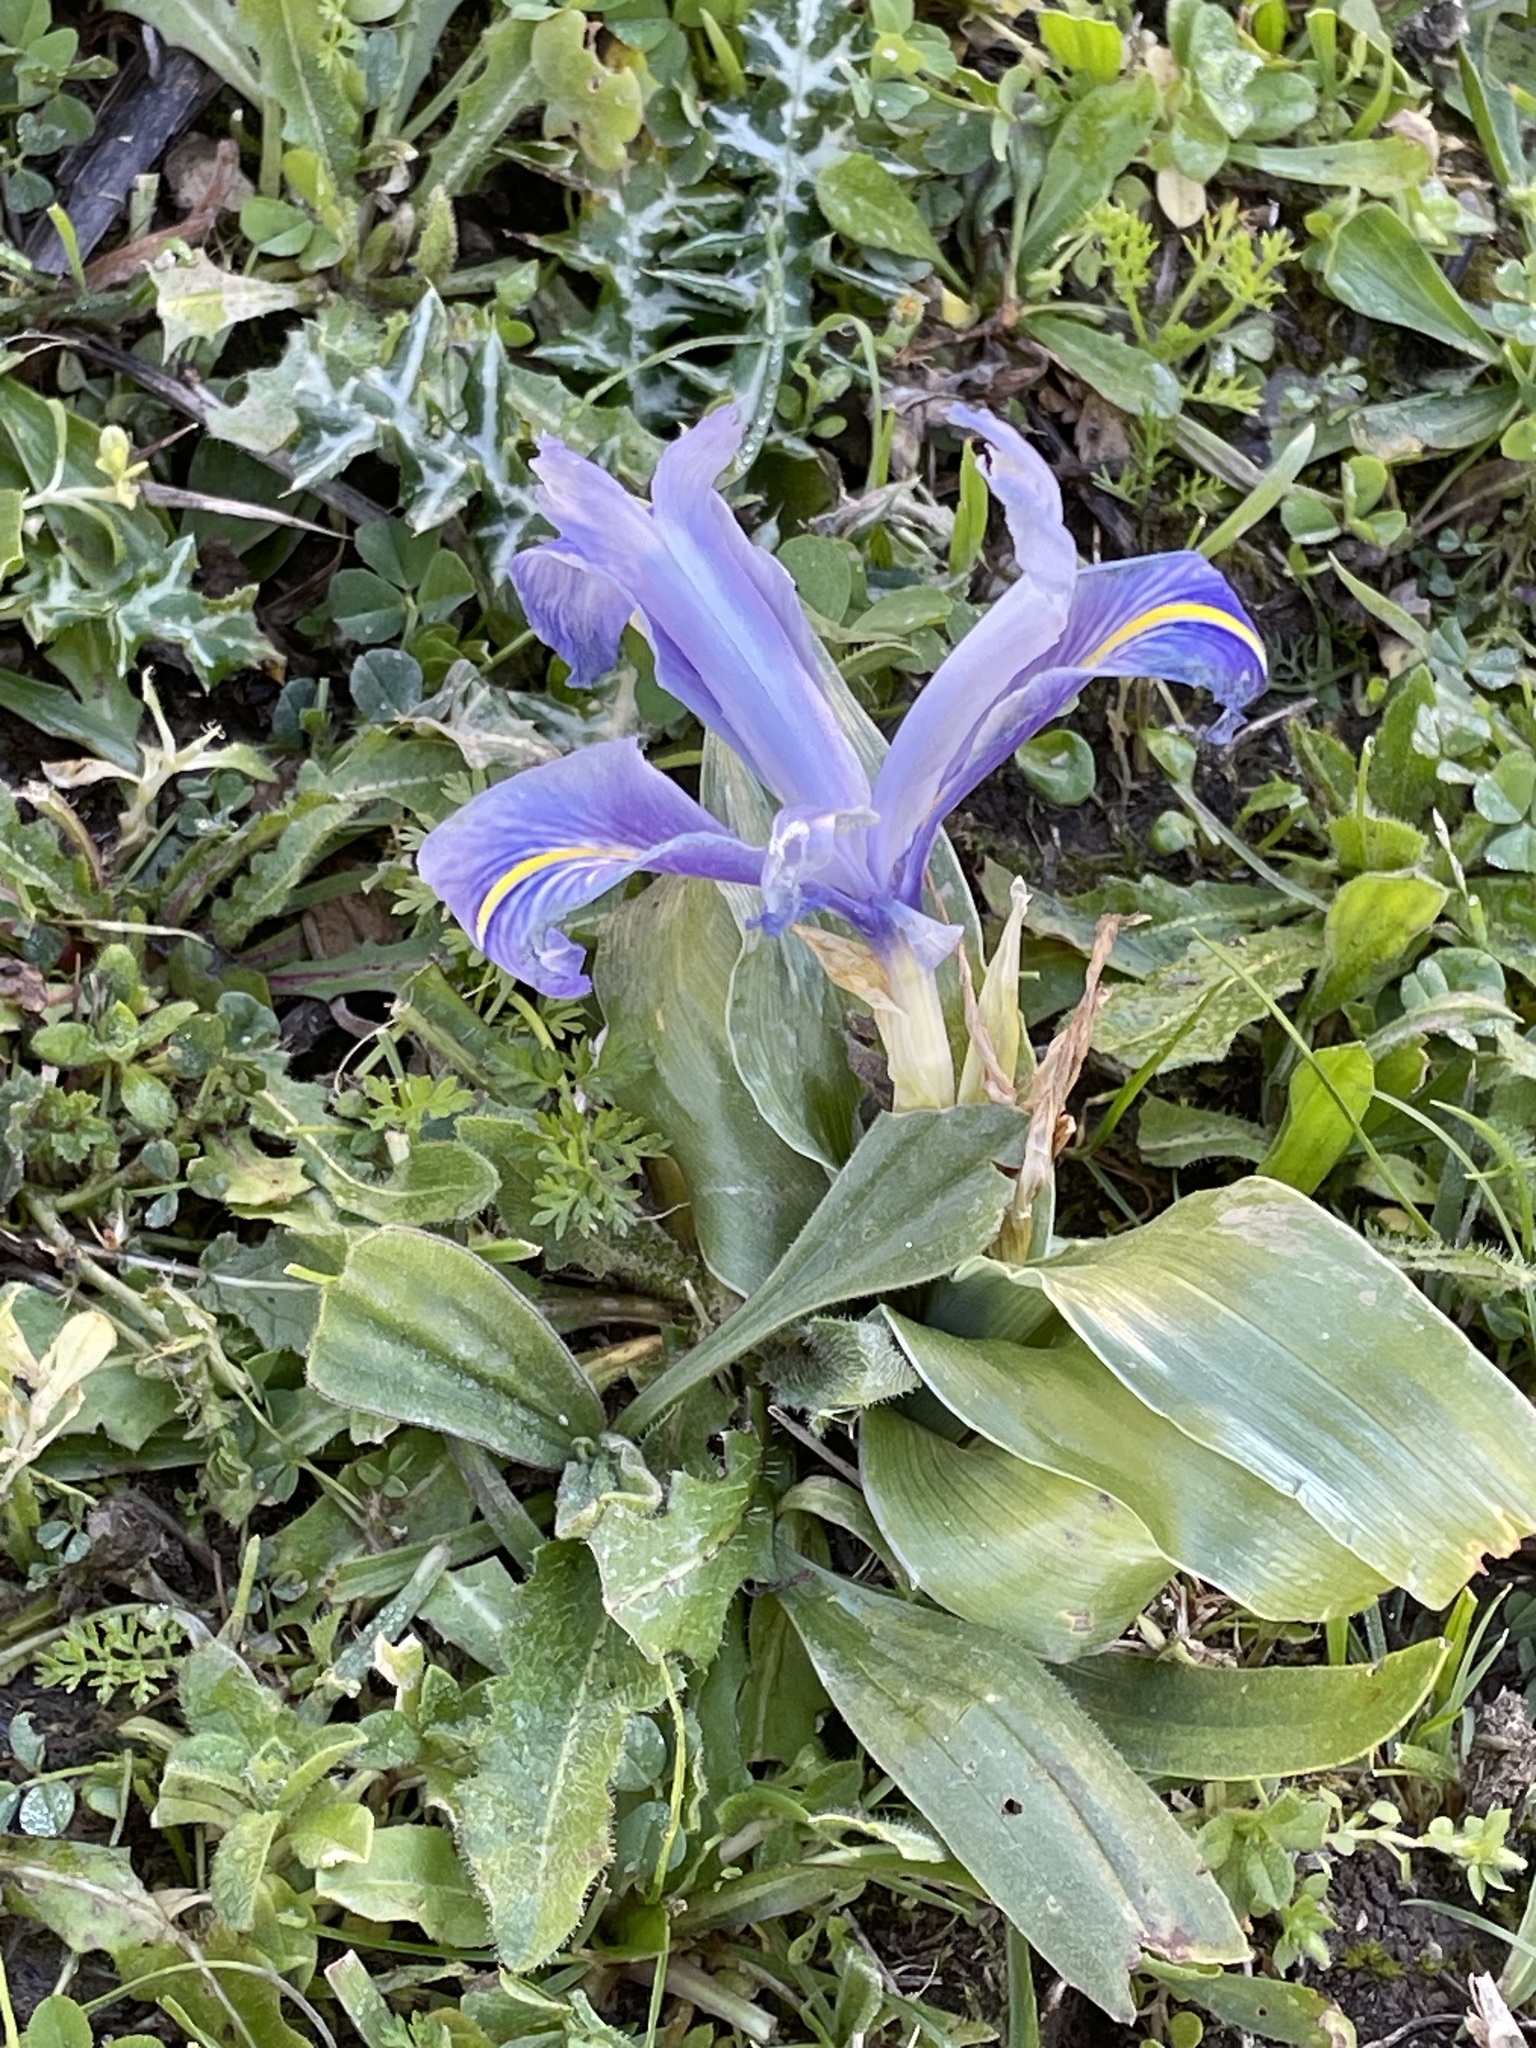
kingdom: Plantae
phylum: Tracheophyta
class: Liliopsida
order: Asparagales
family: Iridaceae
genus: Iris
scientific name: Iris planifolia
